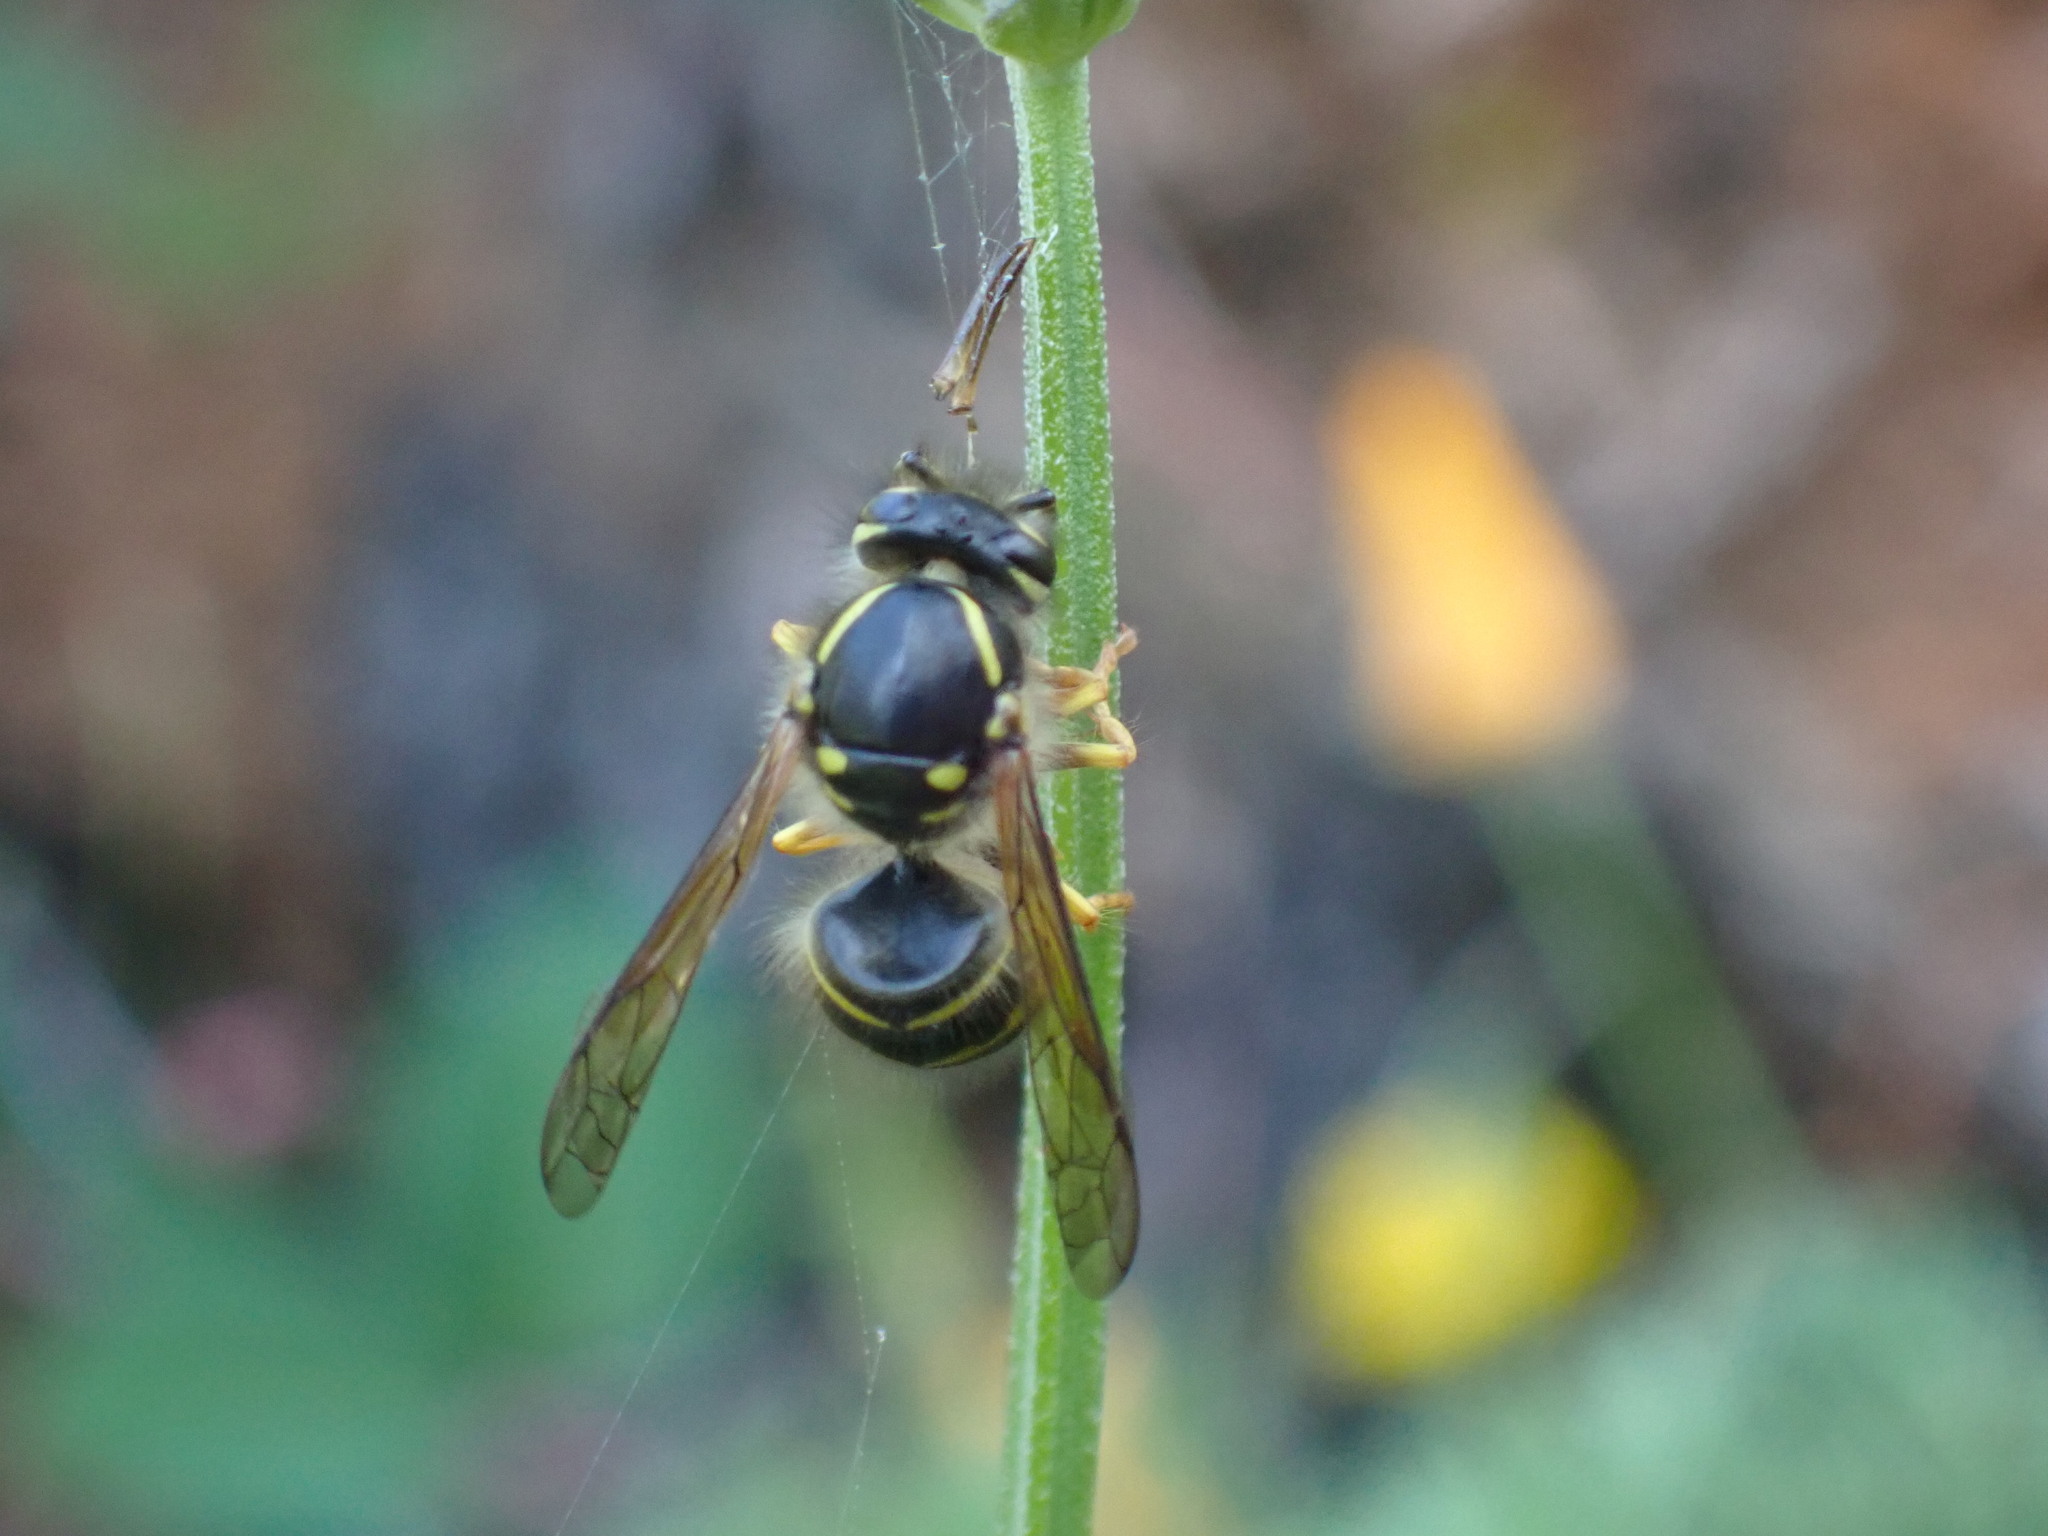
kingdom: Animalia
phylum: Arthropoda
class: Insecta
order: Hymenoptera
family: Vespidae
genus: Dolichovespula
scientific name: Dolichovespula arenaria
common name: Aerial yellowjacket
